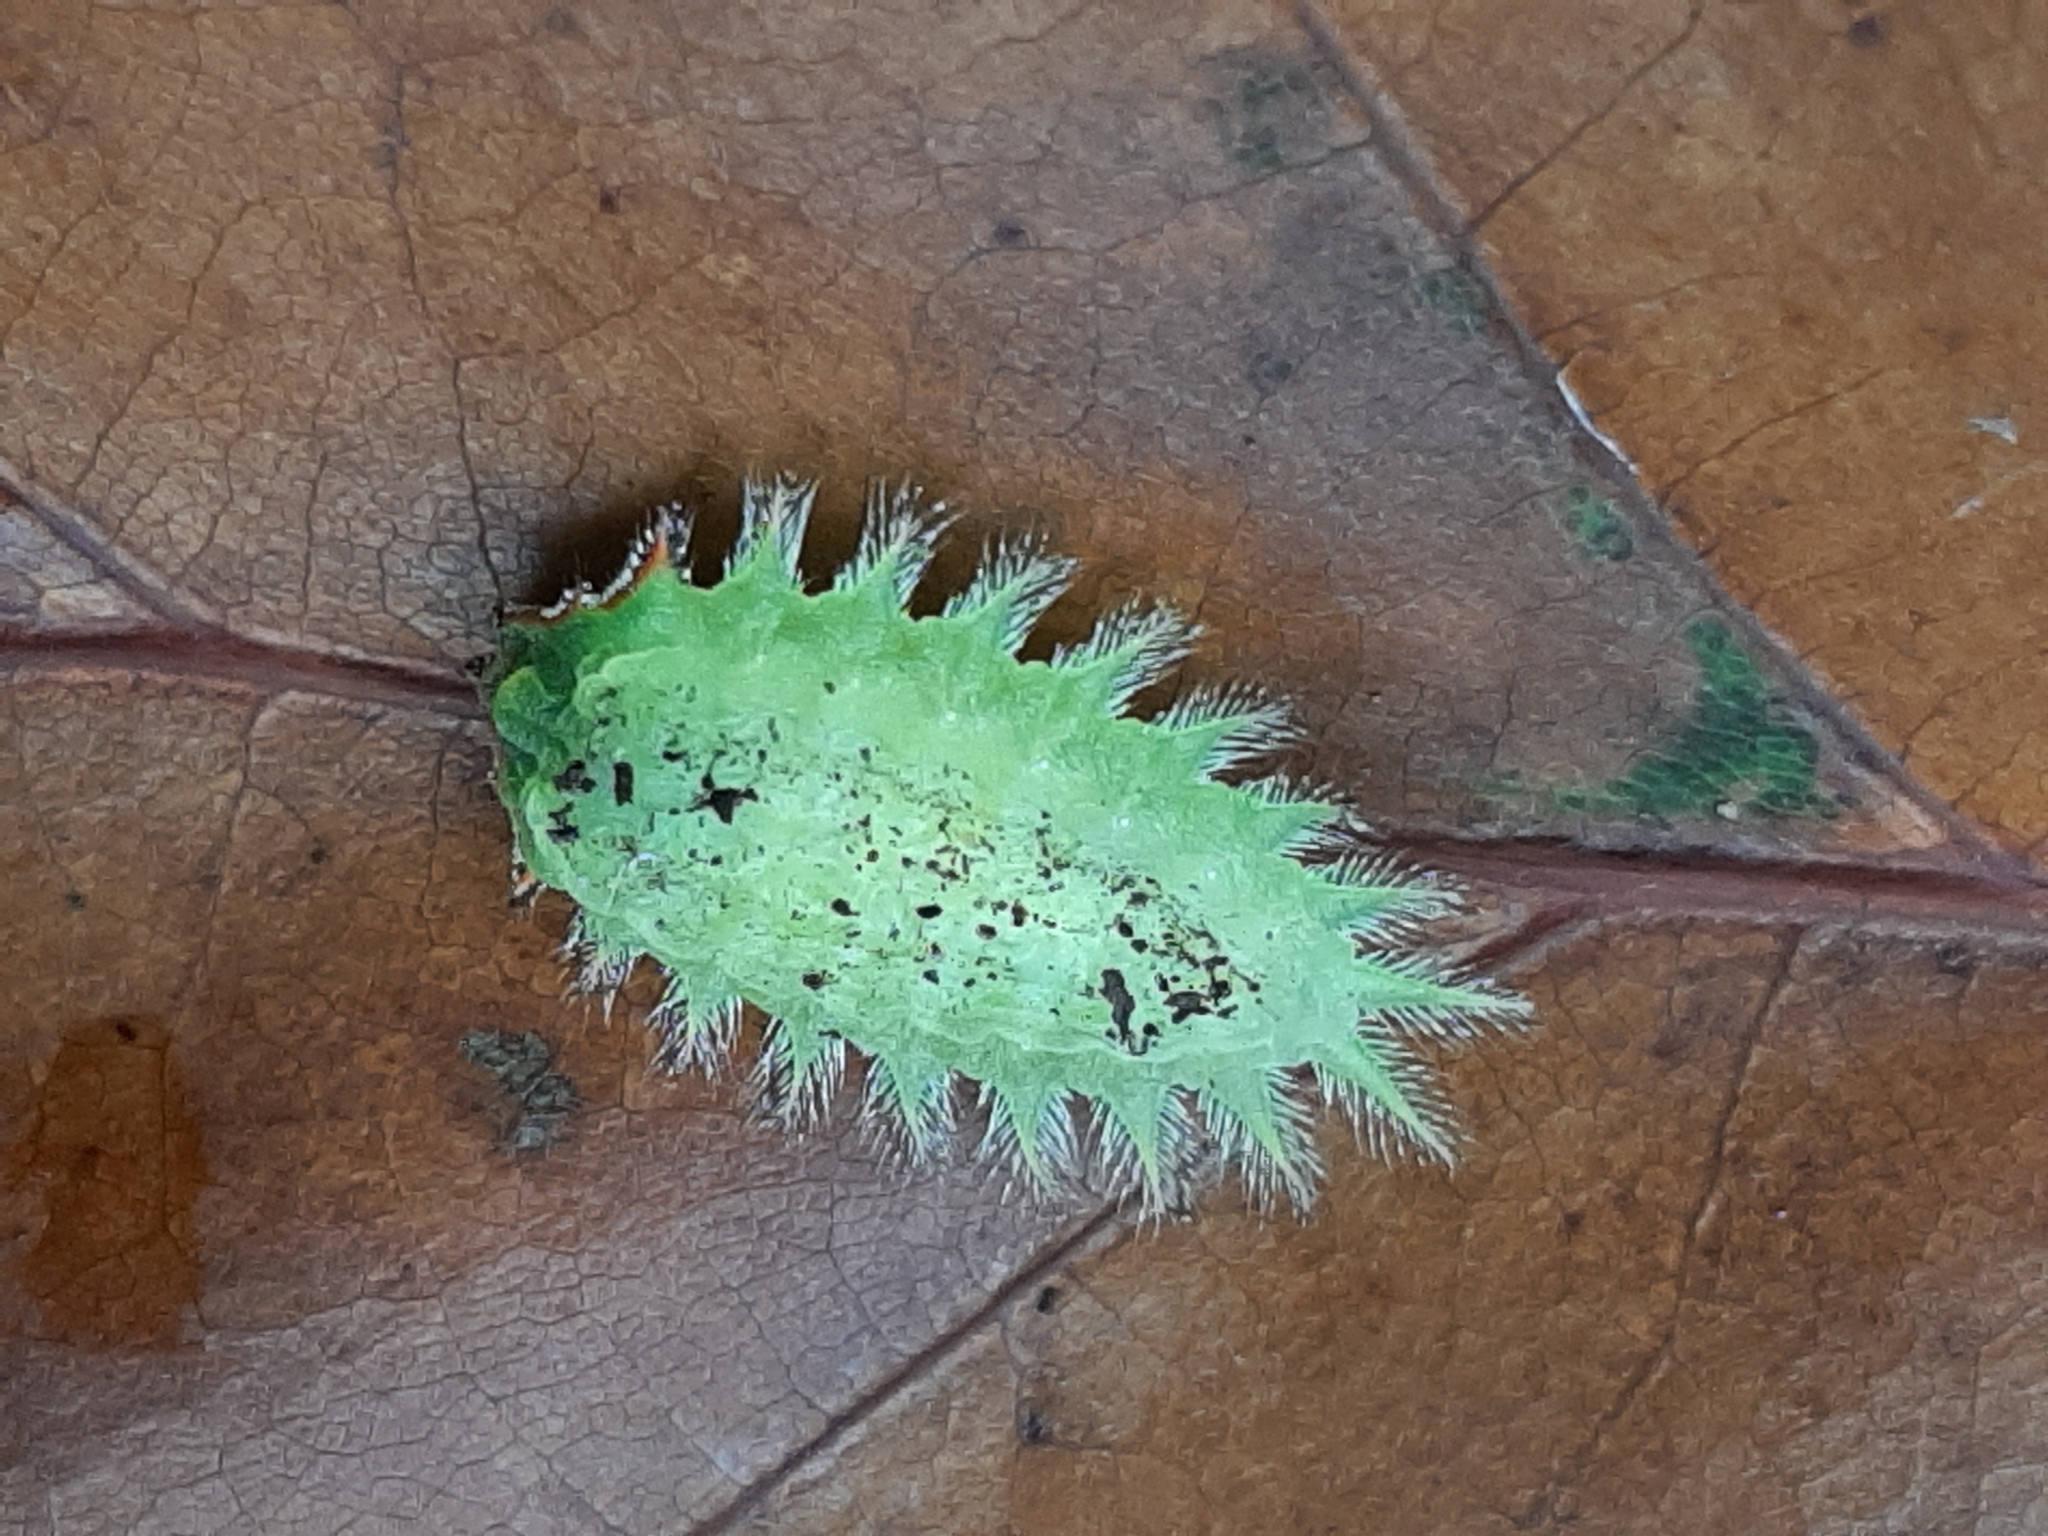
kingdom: Animalia
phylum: Arthropoda
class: Insecta
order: Lepidoptera
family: Limacodidae
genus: Isa
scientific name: Isa textula
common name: Crowned slug moth
